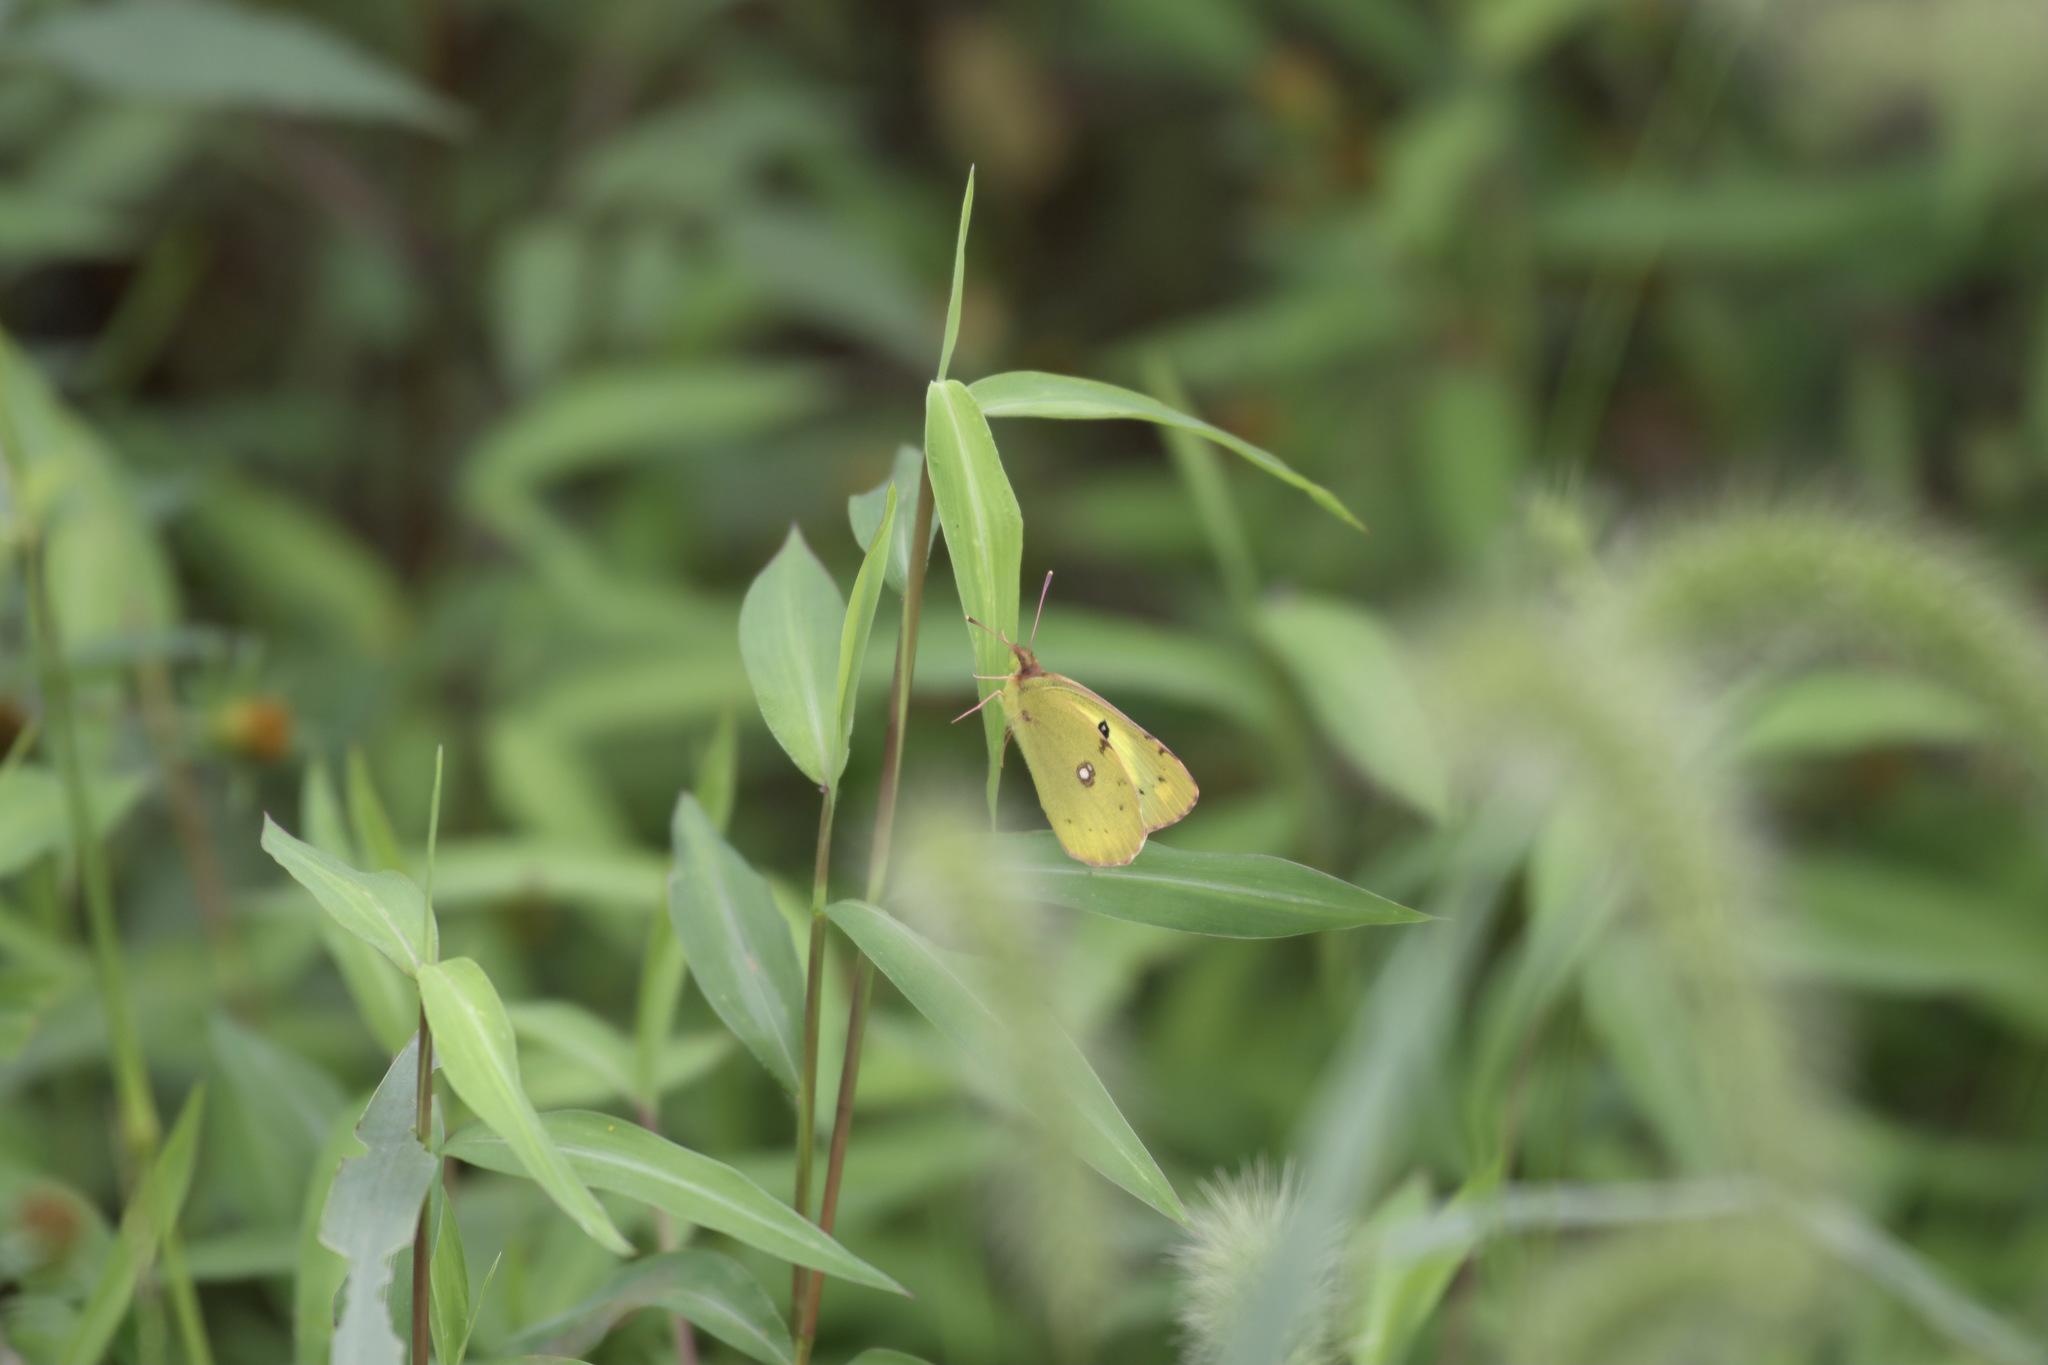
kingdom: Animalia
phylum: Arthropoda
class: Insecta
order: Lepidoptera
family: Pieridae
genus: Colias
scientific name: Colias poliographus
